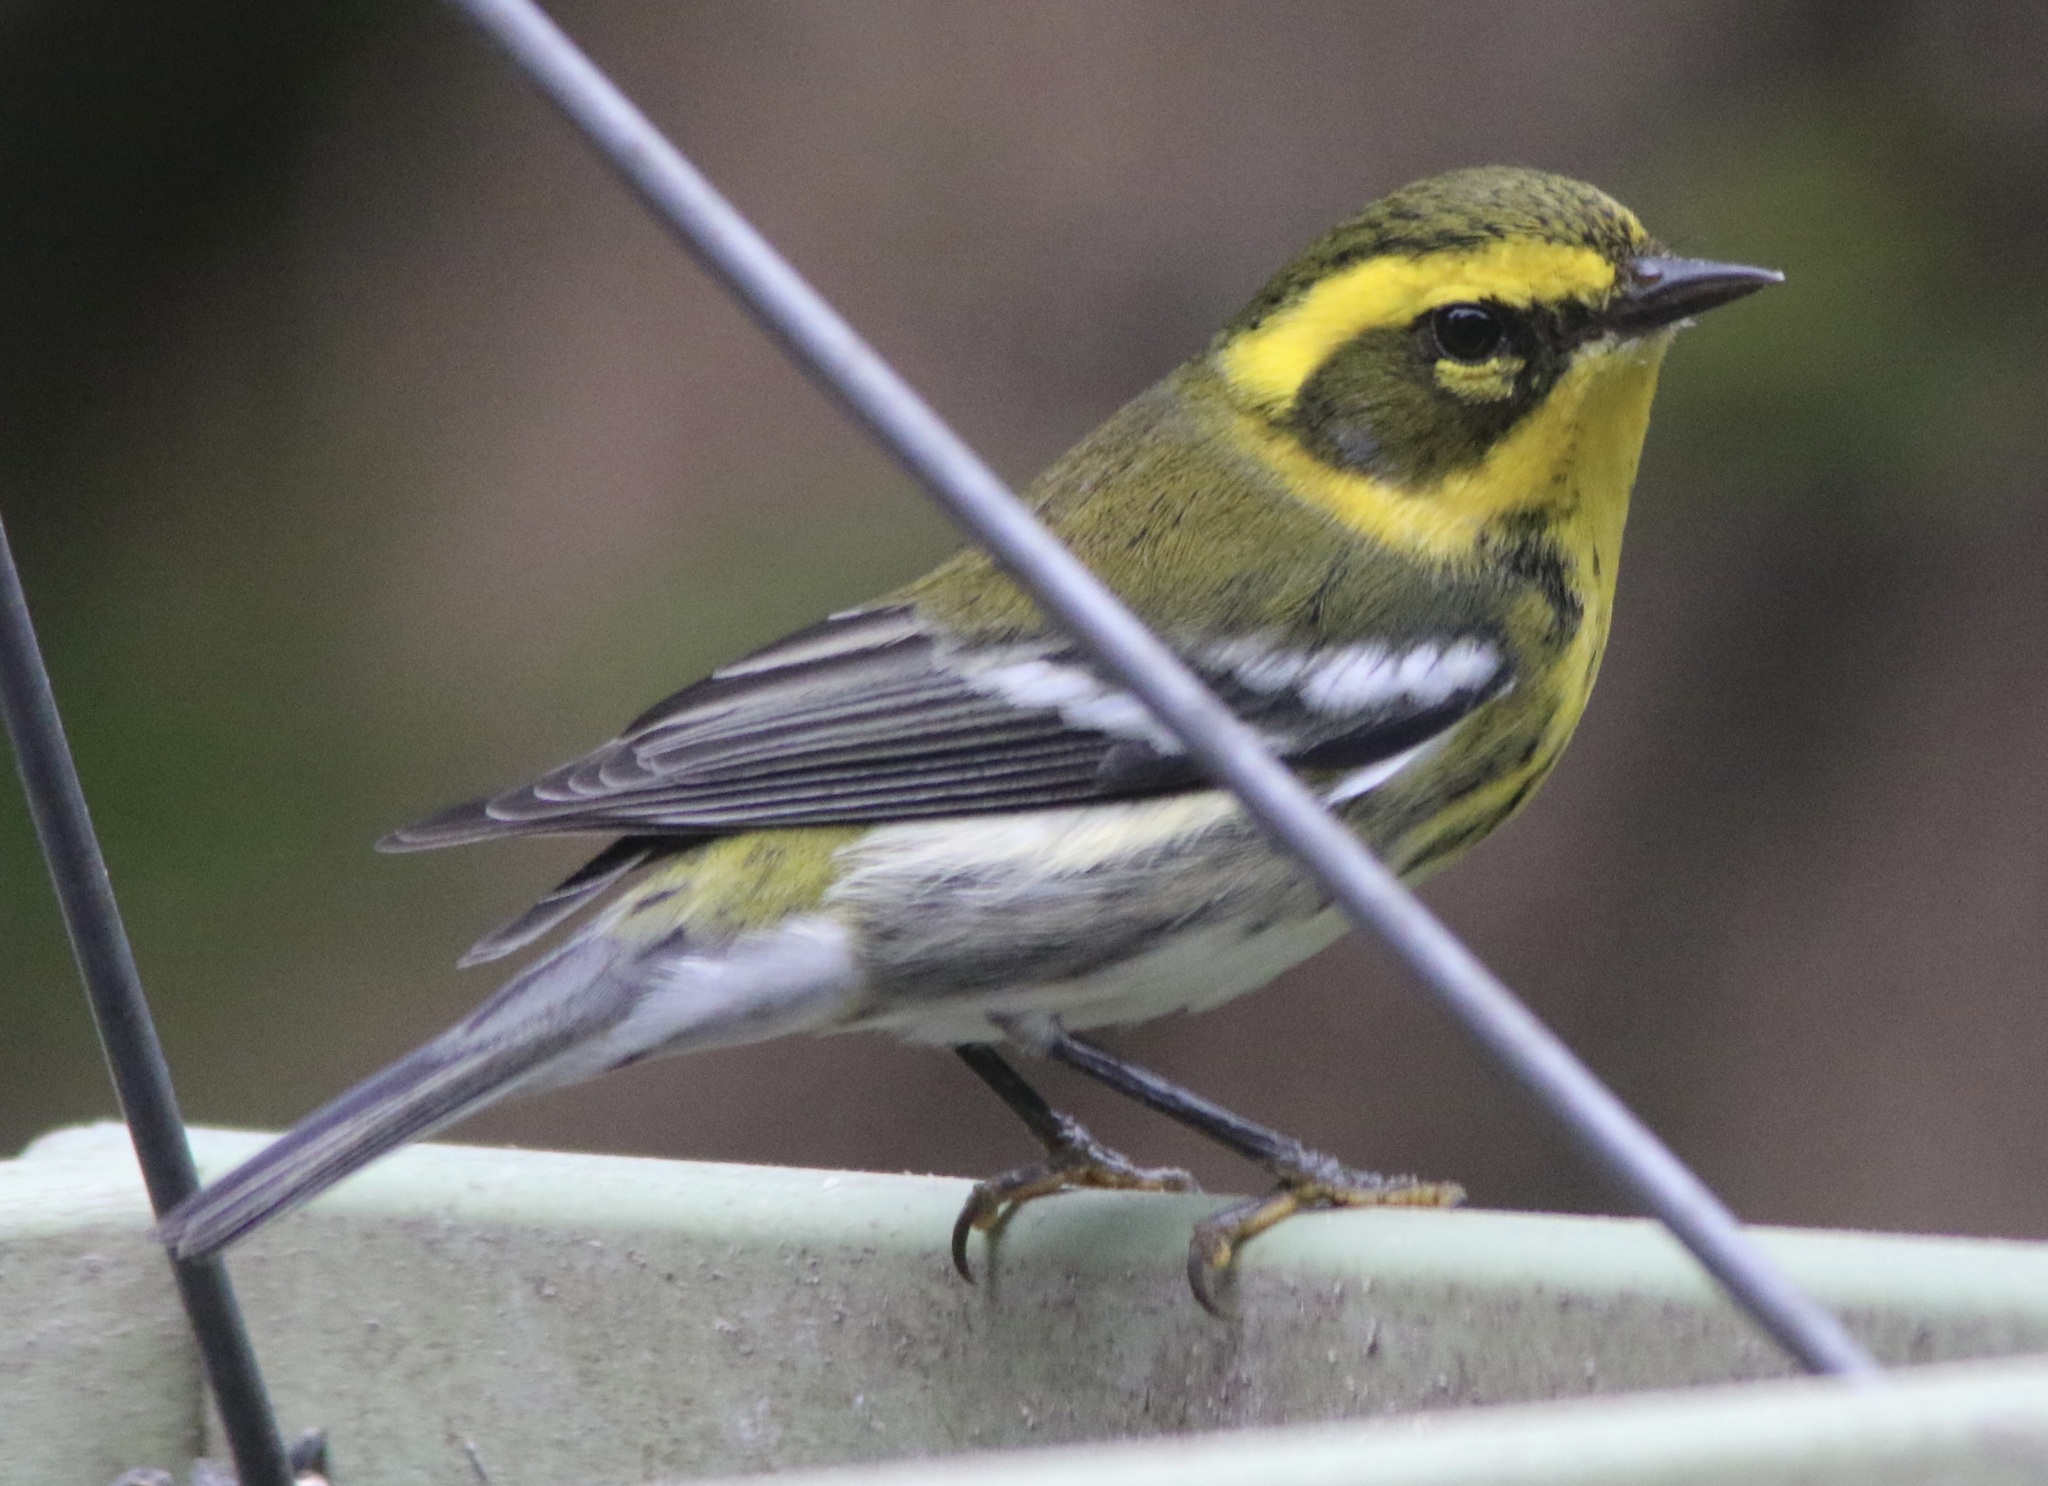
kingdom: Animalia
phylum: Chordata
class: Aves
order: Passeriformes
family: Parulidae
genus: Setophaga
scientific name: Setophaga townsendi
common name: Townsend's warbler
